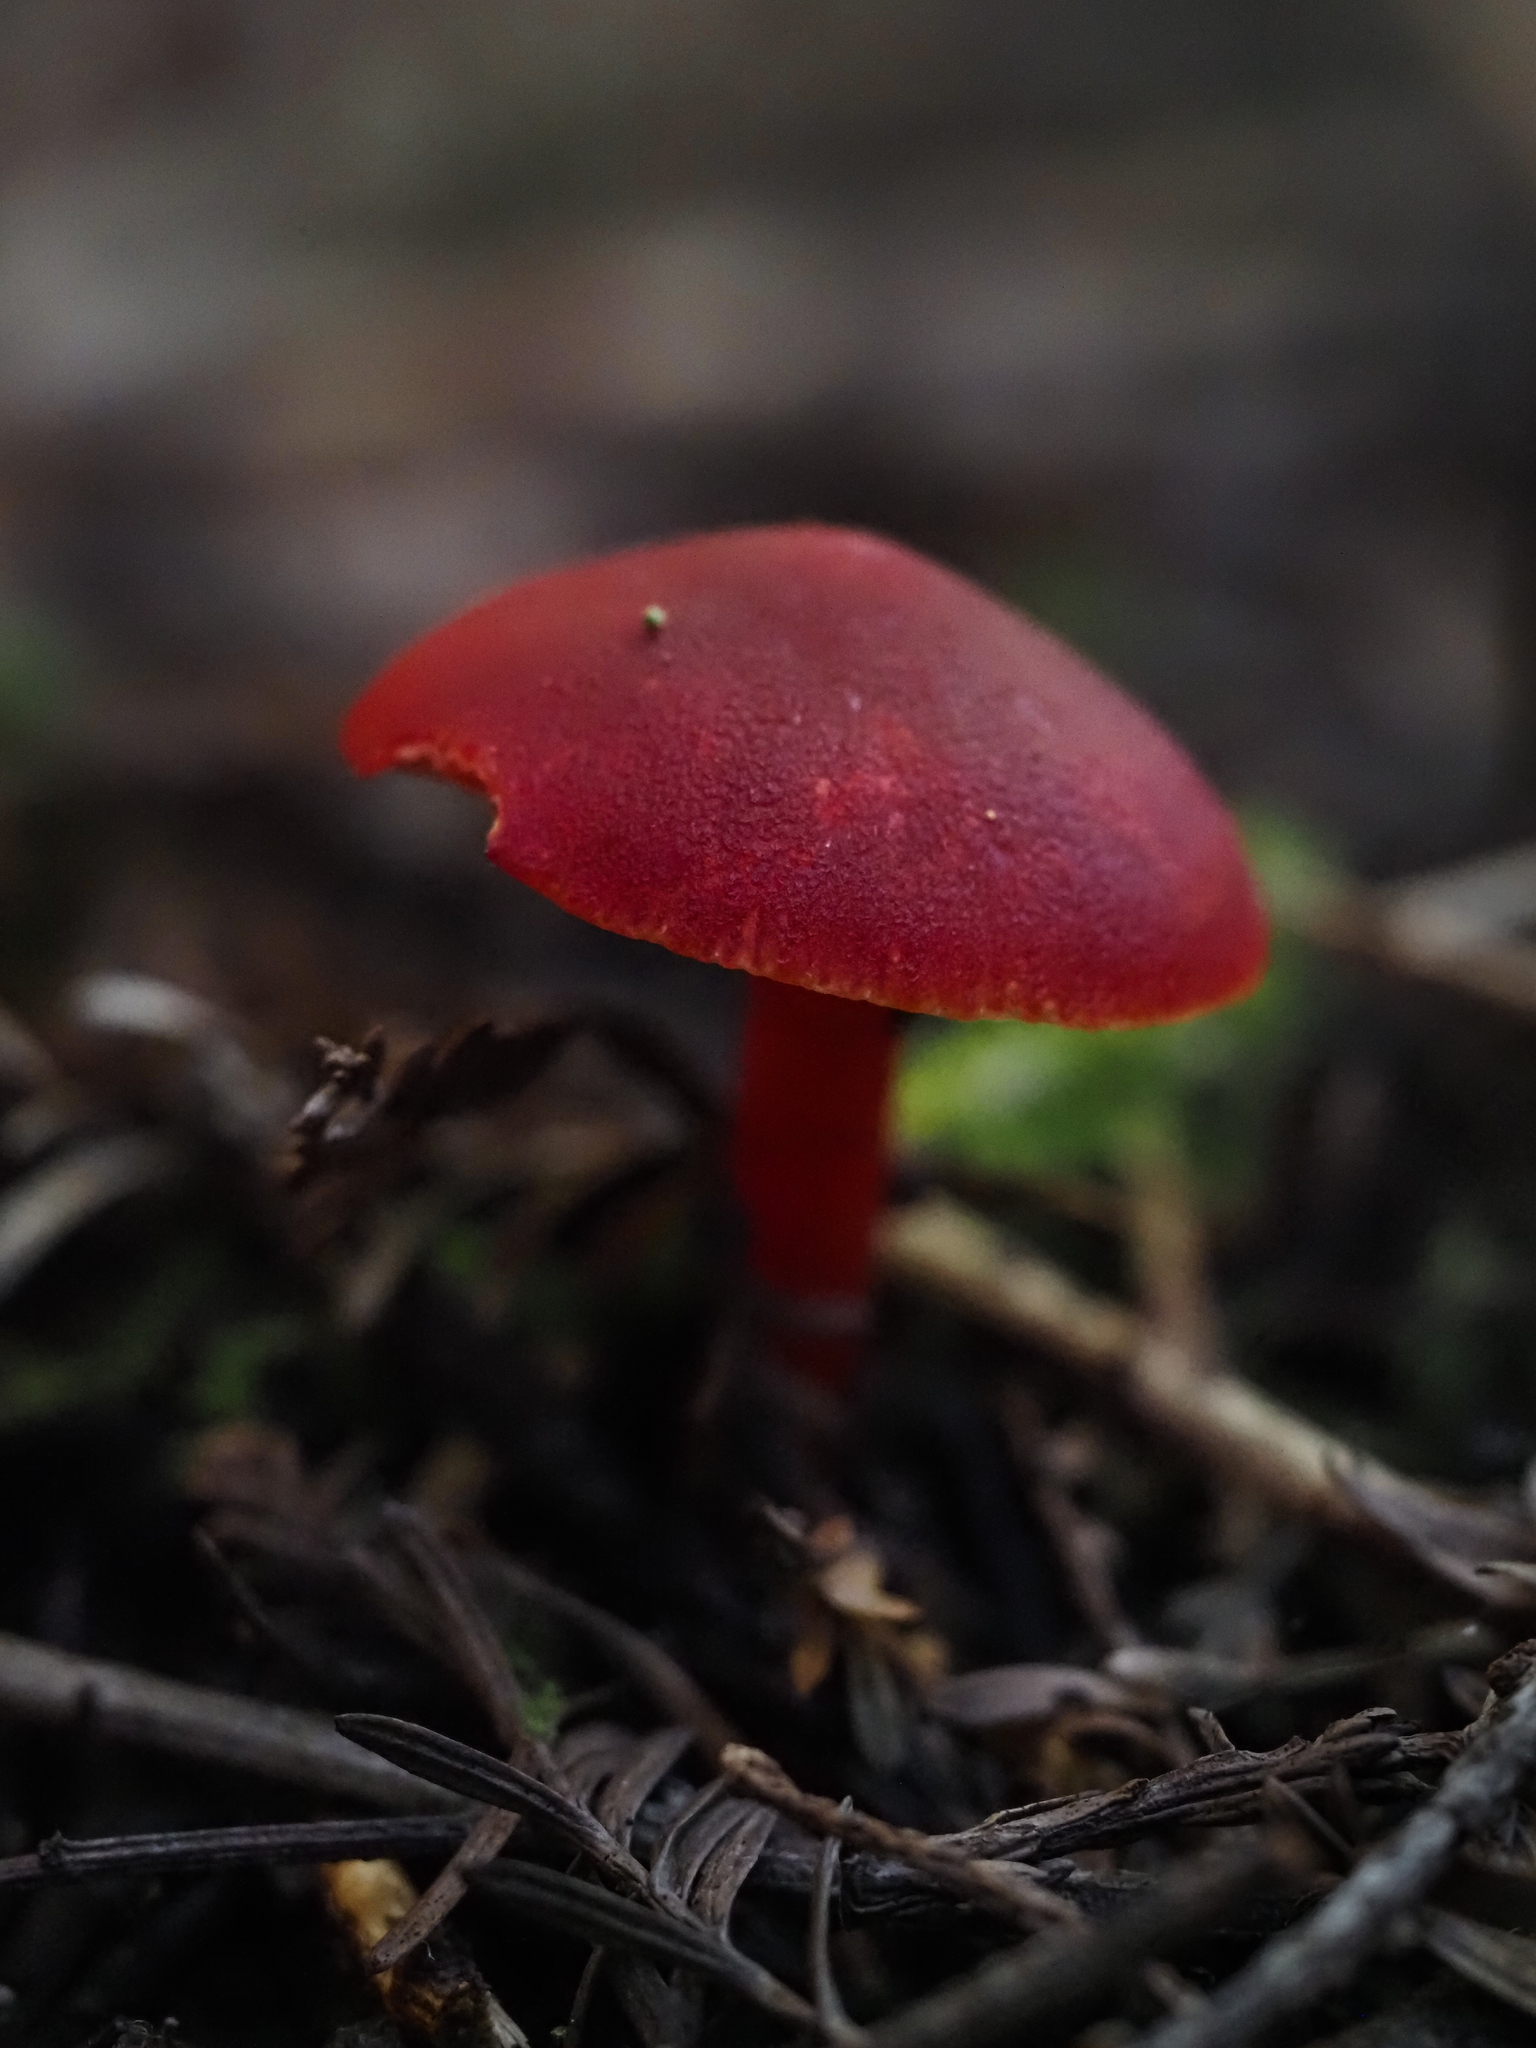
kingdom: Fungi
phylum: Basidiomycota
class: Agaricomycetes
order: Agaricales
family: Hygrophoraceae
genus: Hygrocybe
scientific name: Hygrocybe coccinea
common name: Scarlet hood
